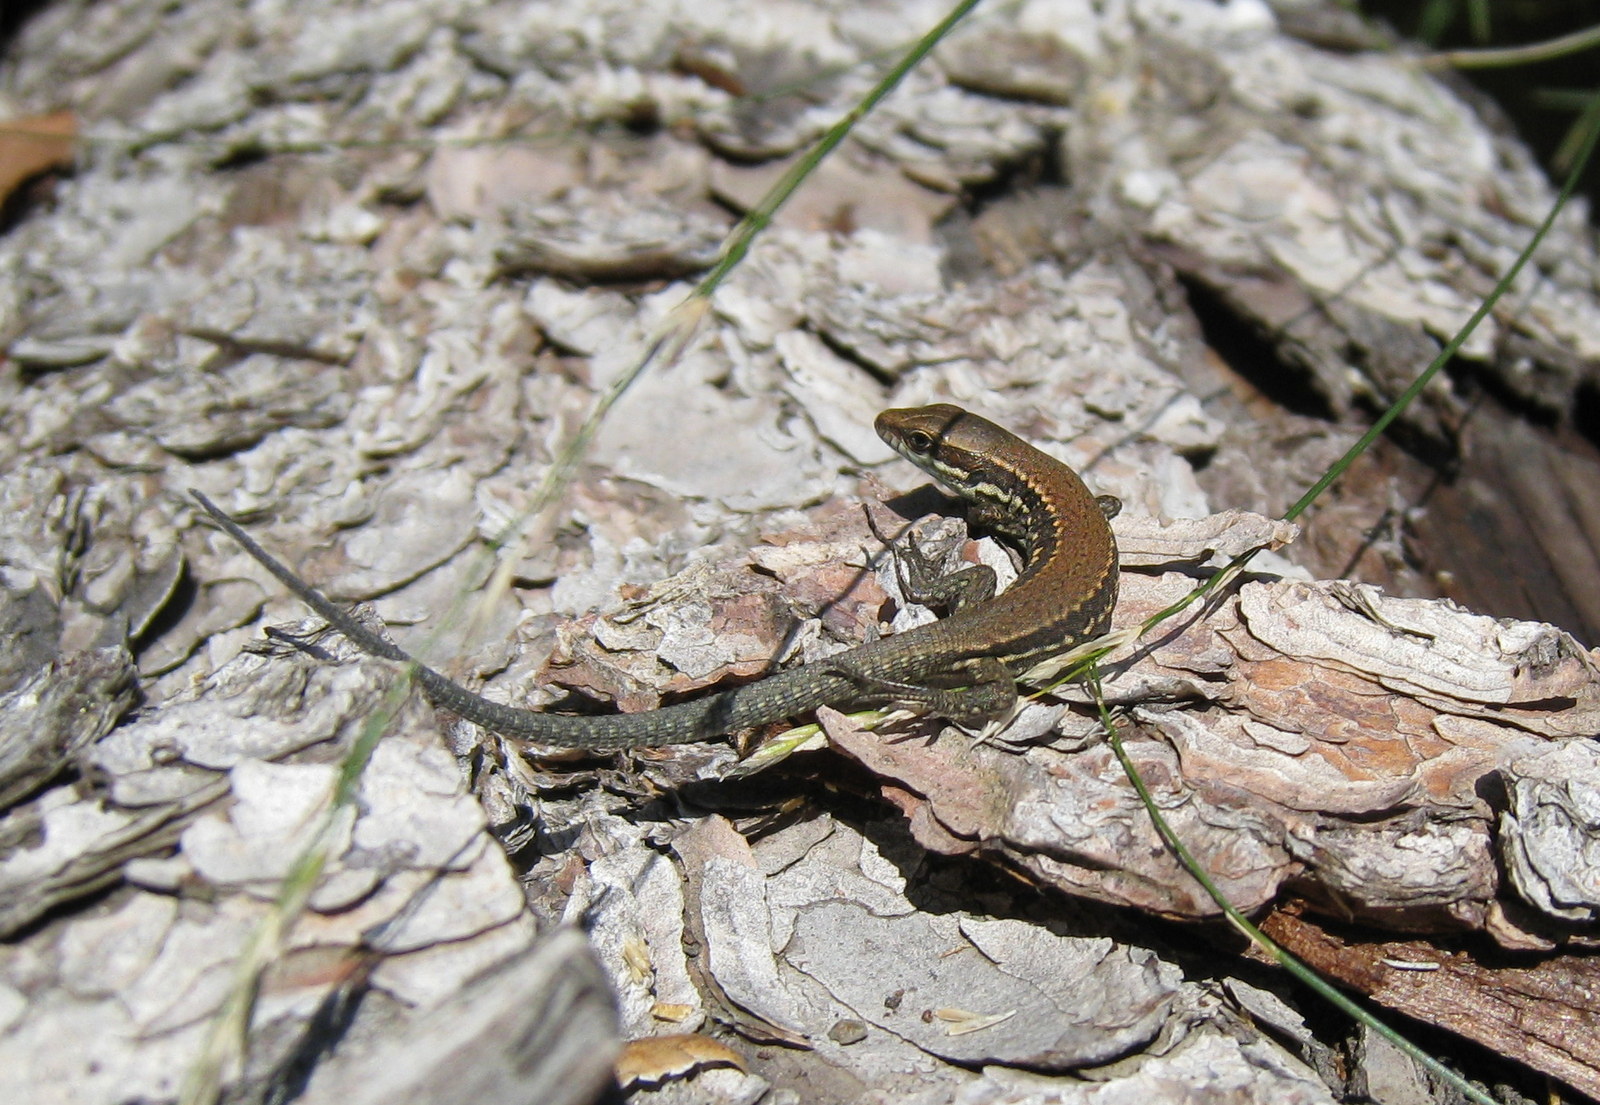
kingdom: Animalia
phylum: Chordata
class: Squamata
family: Lacertidae
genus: Podarcis
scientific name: Podarcis muralis
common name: Common wall lizard
